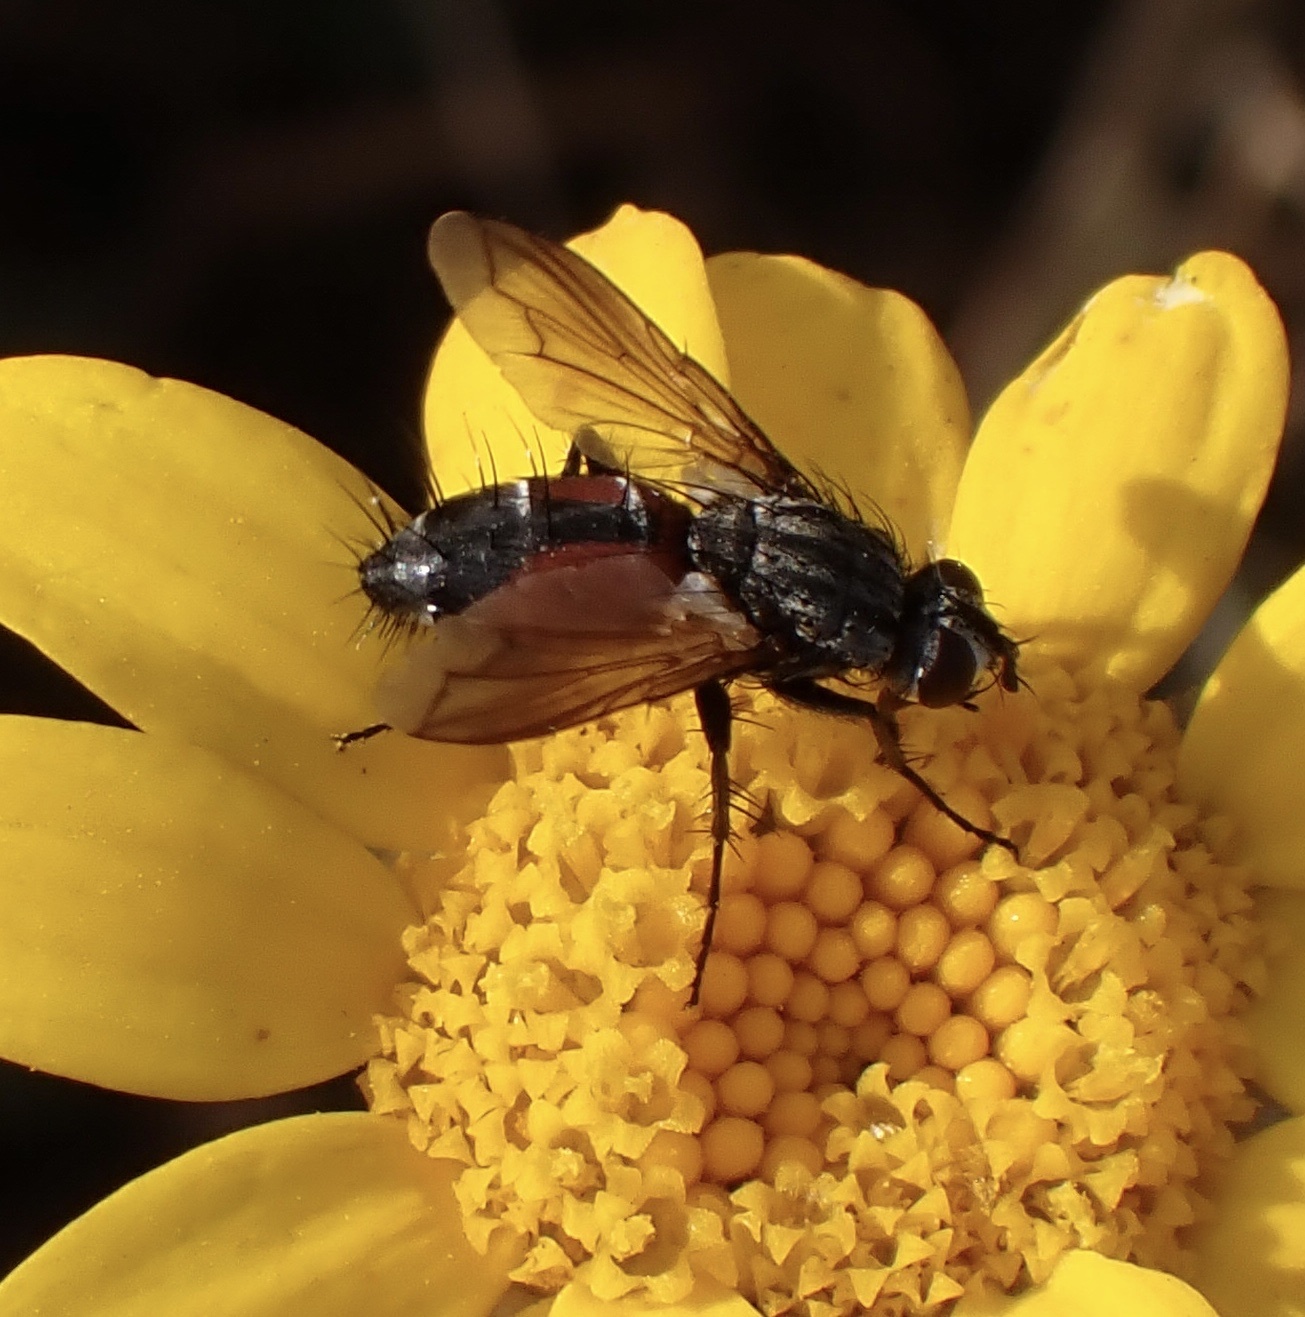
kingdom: Animalia
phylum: Arthropoda
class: Insecta
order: Diptera
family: Tachinidae
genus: Eriothrix
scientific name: Eriothrix rufomaculatus
